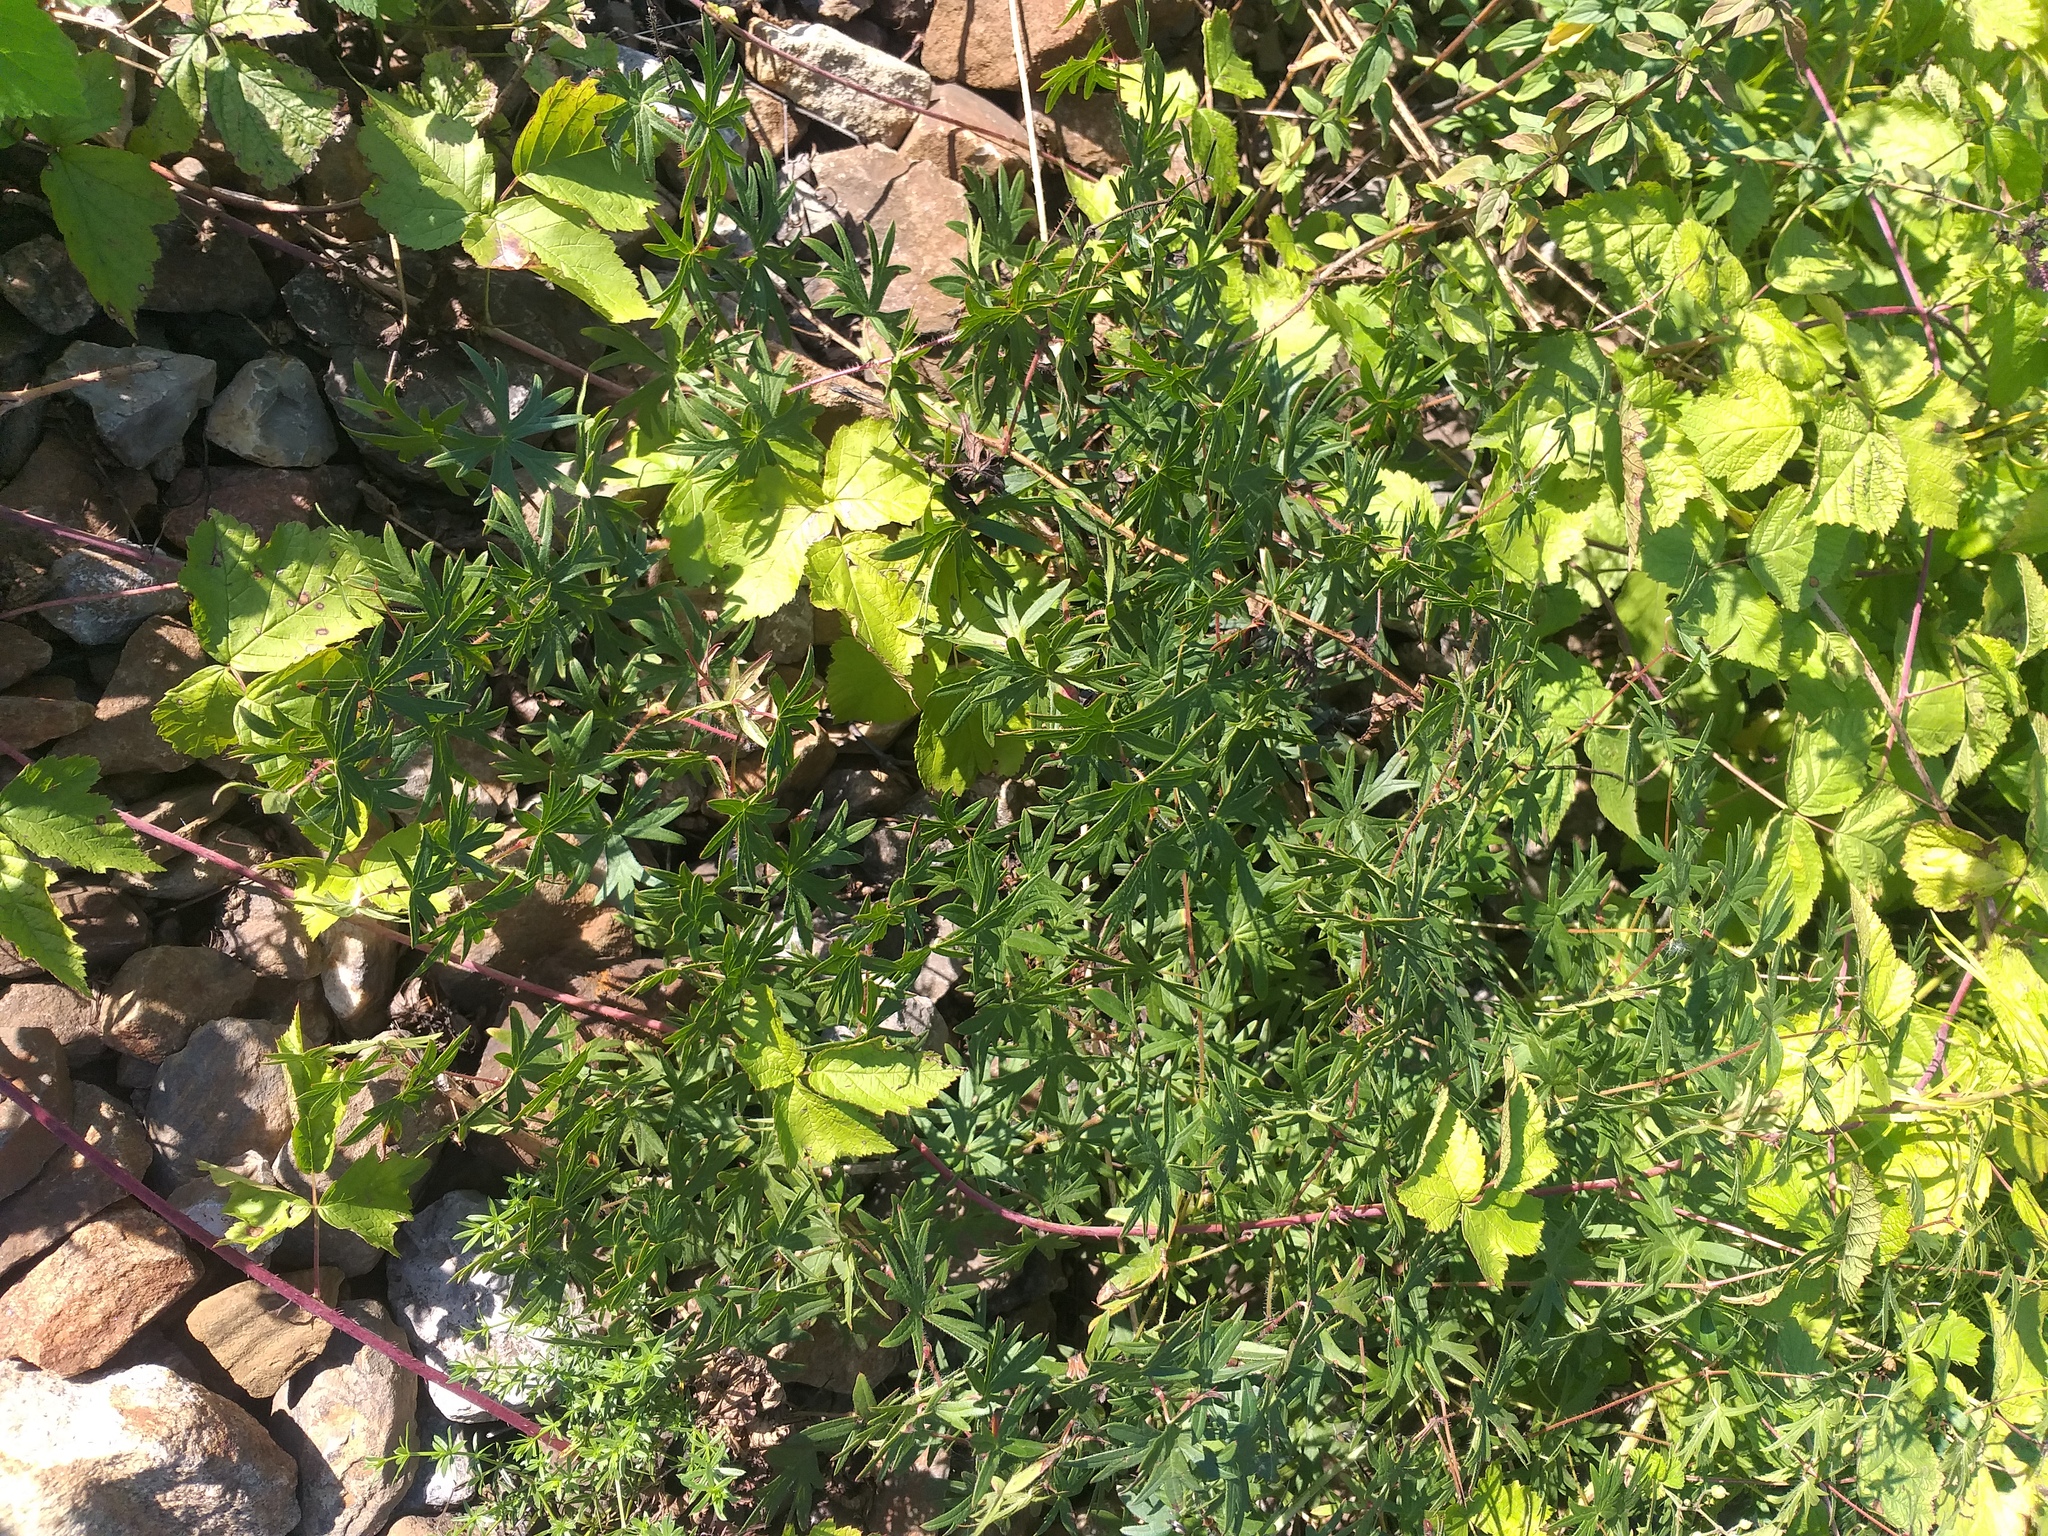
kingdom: Plantae
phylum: Tracheophyta
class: Magnoliopsida
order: Geraniales
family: Geraniaceae
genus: Geranium
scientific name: Geranium sanguineum
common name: Bloody crane's-bill
